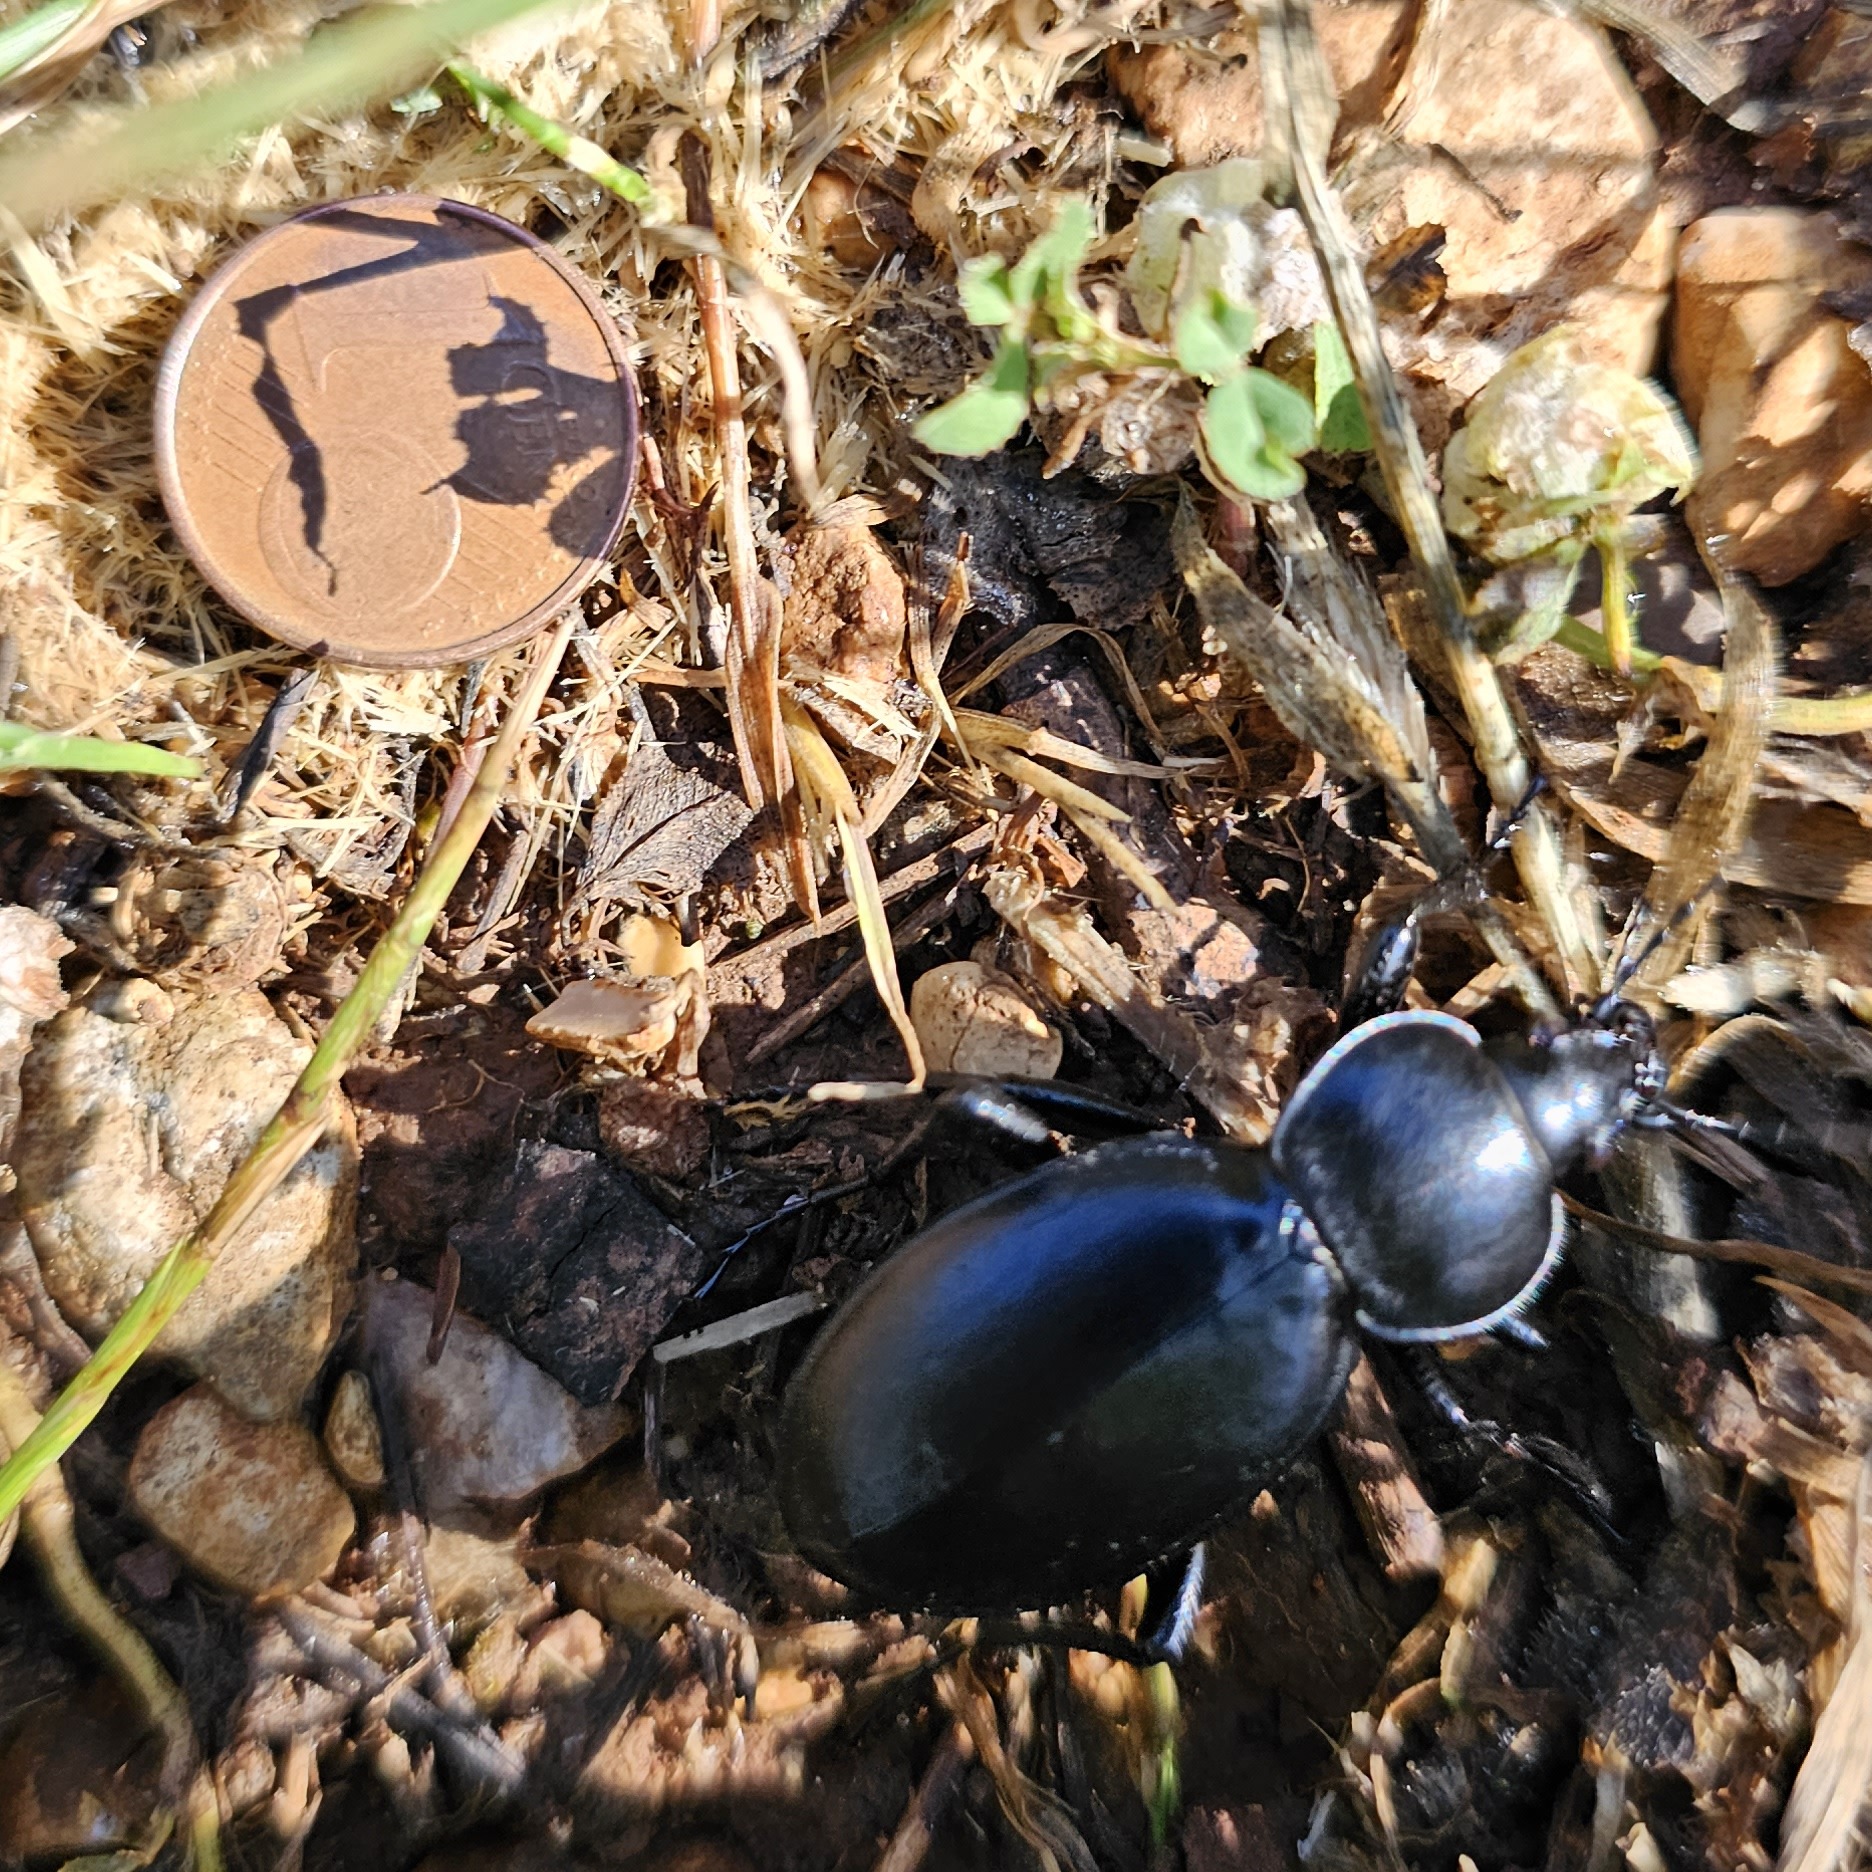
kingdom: Animalia
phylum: Arthropoda
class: Insecta
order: Coleoptera
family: Carabidae
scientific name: Carabidae
